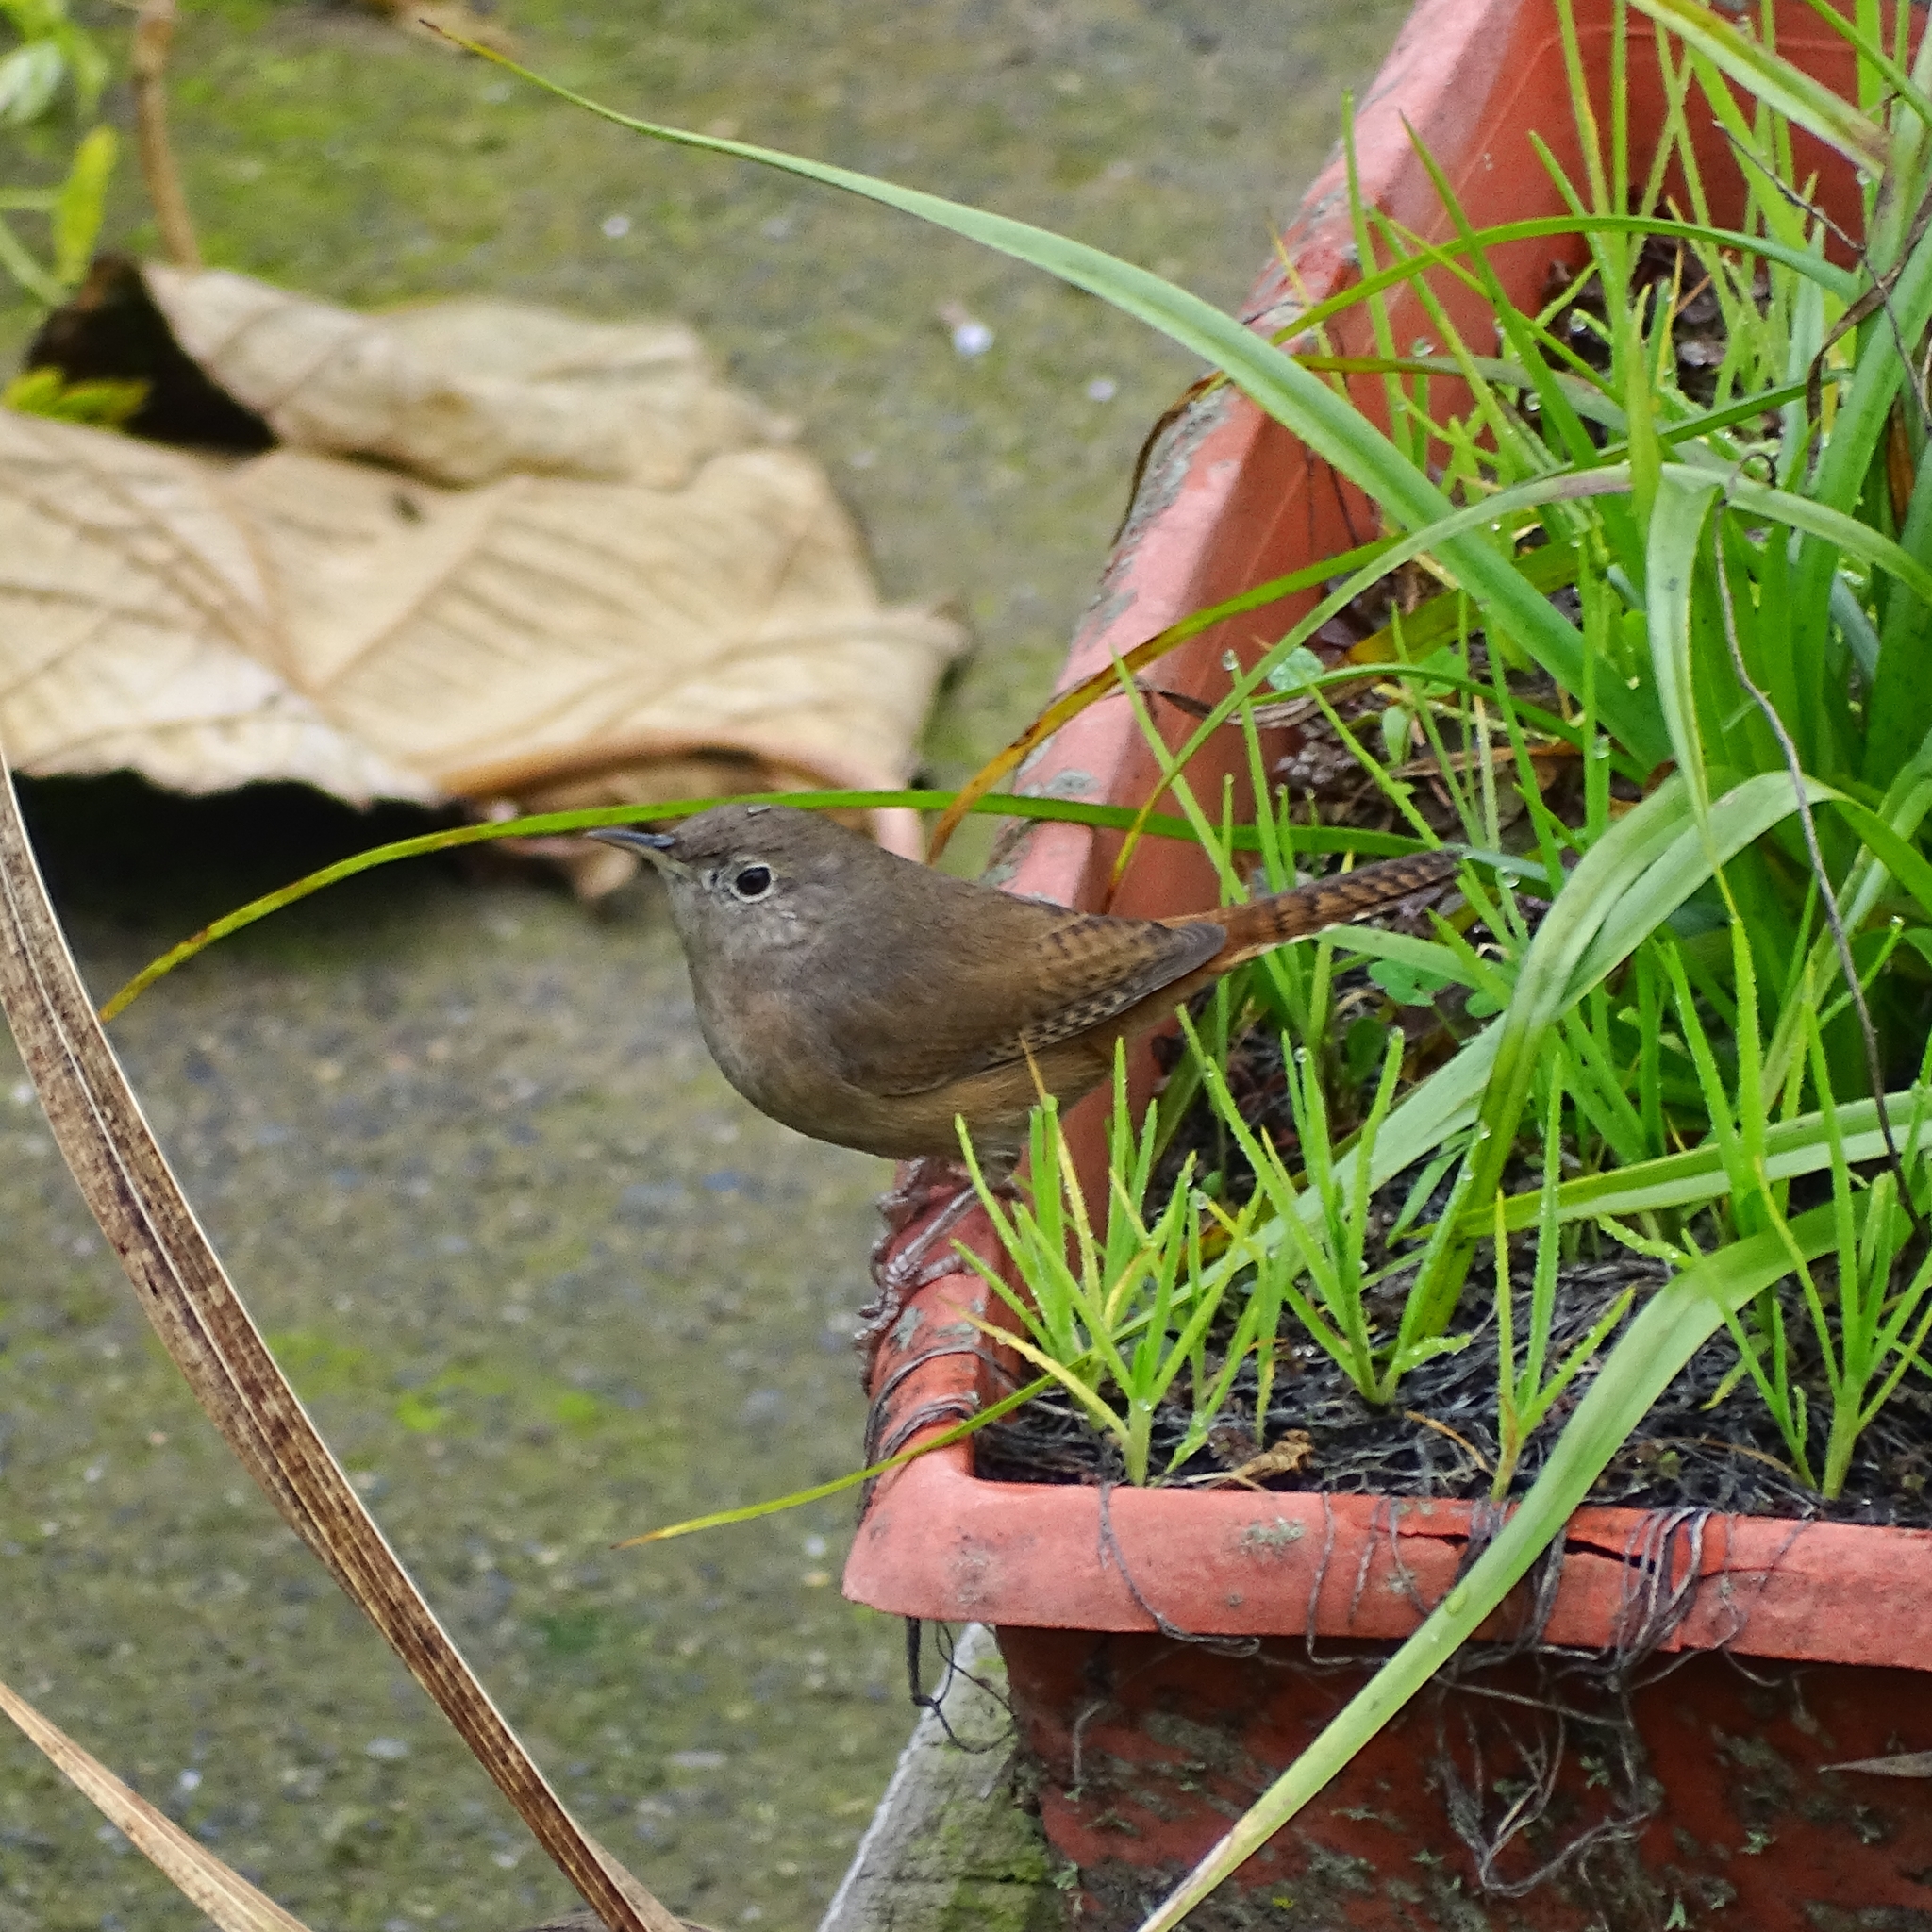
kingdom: Animalia
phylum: Chordata
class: Aves
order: Passeriformes
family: Troglodytidae
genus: Troglodytes
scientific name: Troglodytes aedon
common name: House wren
